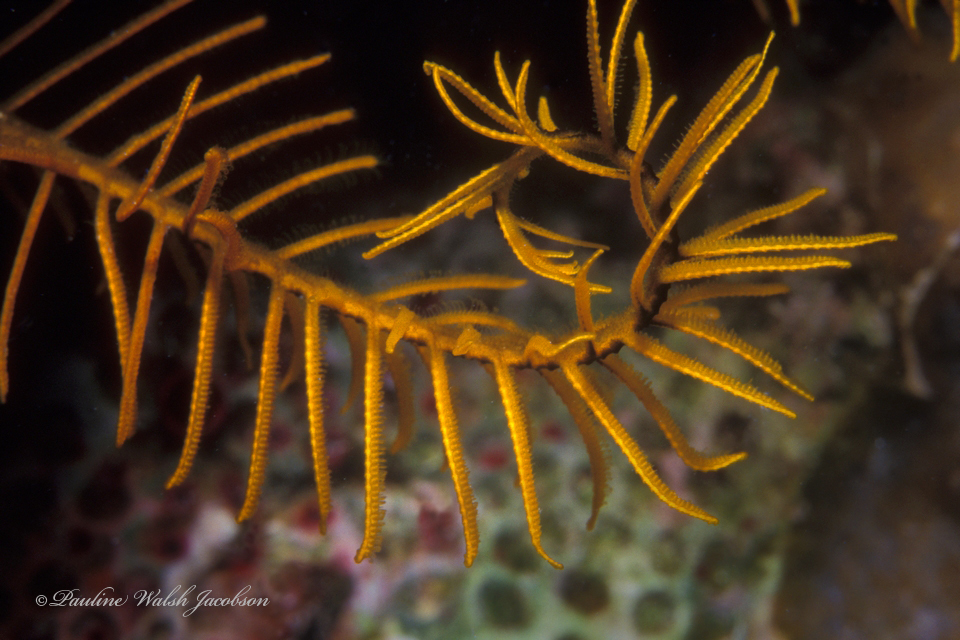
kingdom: Animalia
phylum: Echinodermata
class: Crinoidea
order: Comatulida
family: Comatulidae
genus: Davidaster
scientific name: Davidaster rubiginosus
